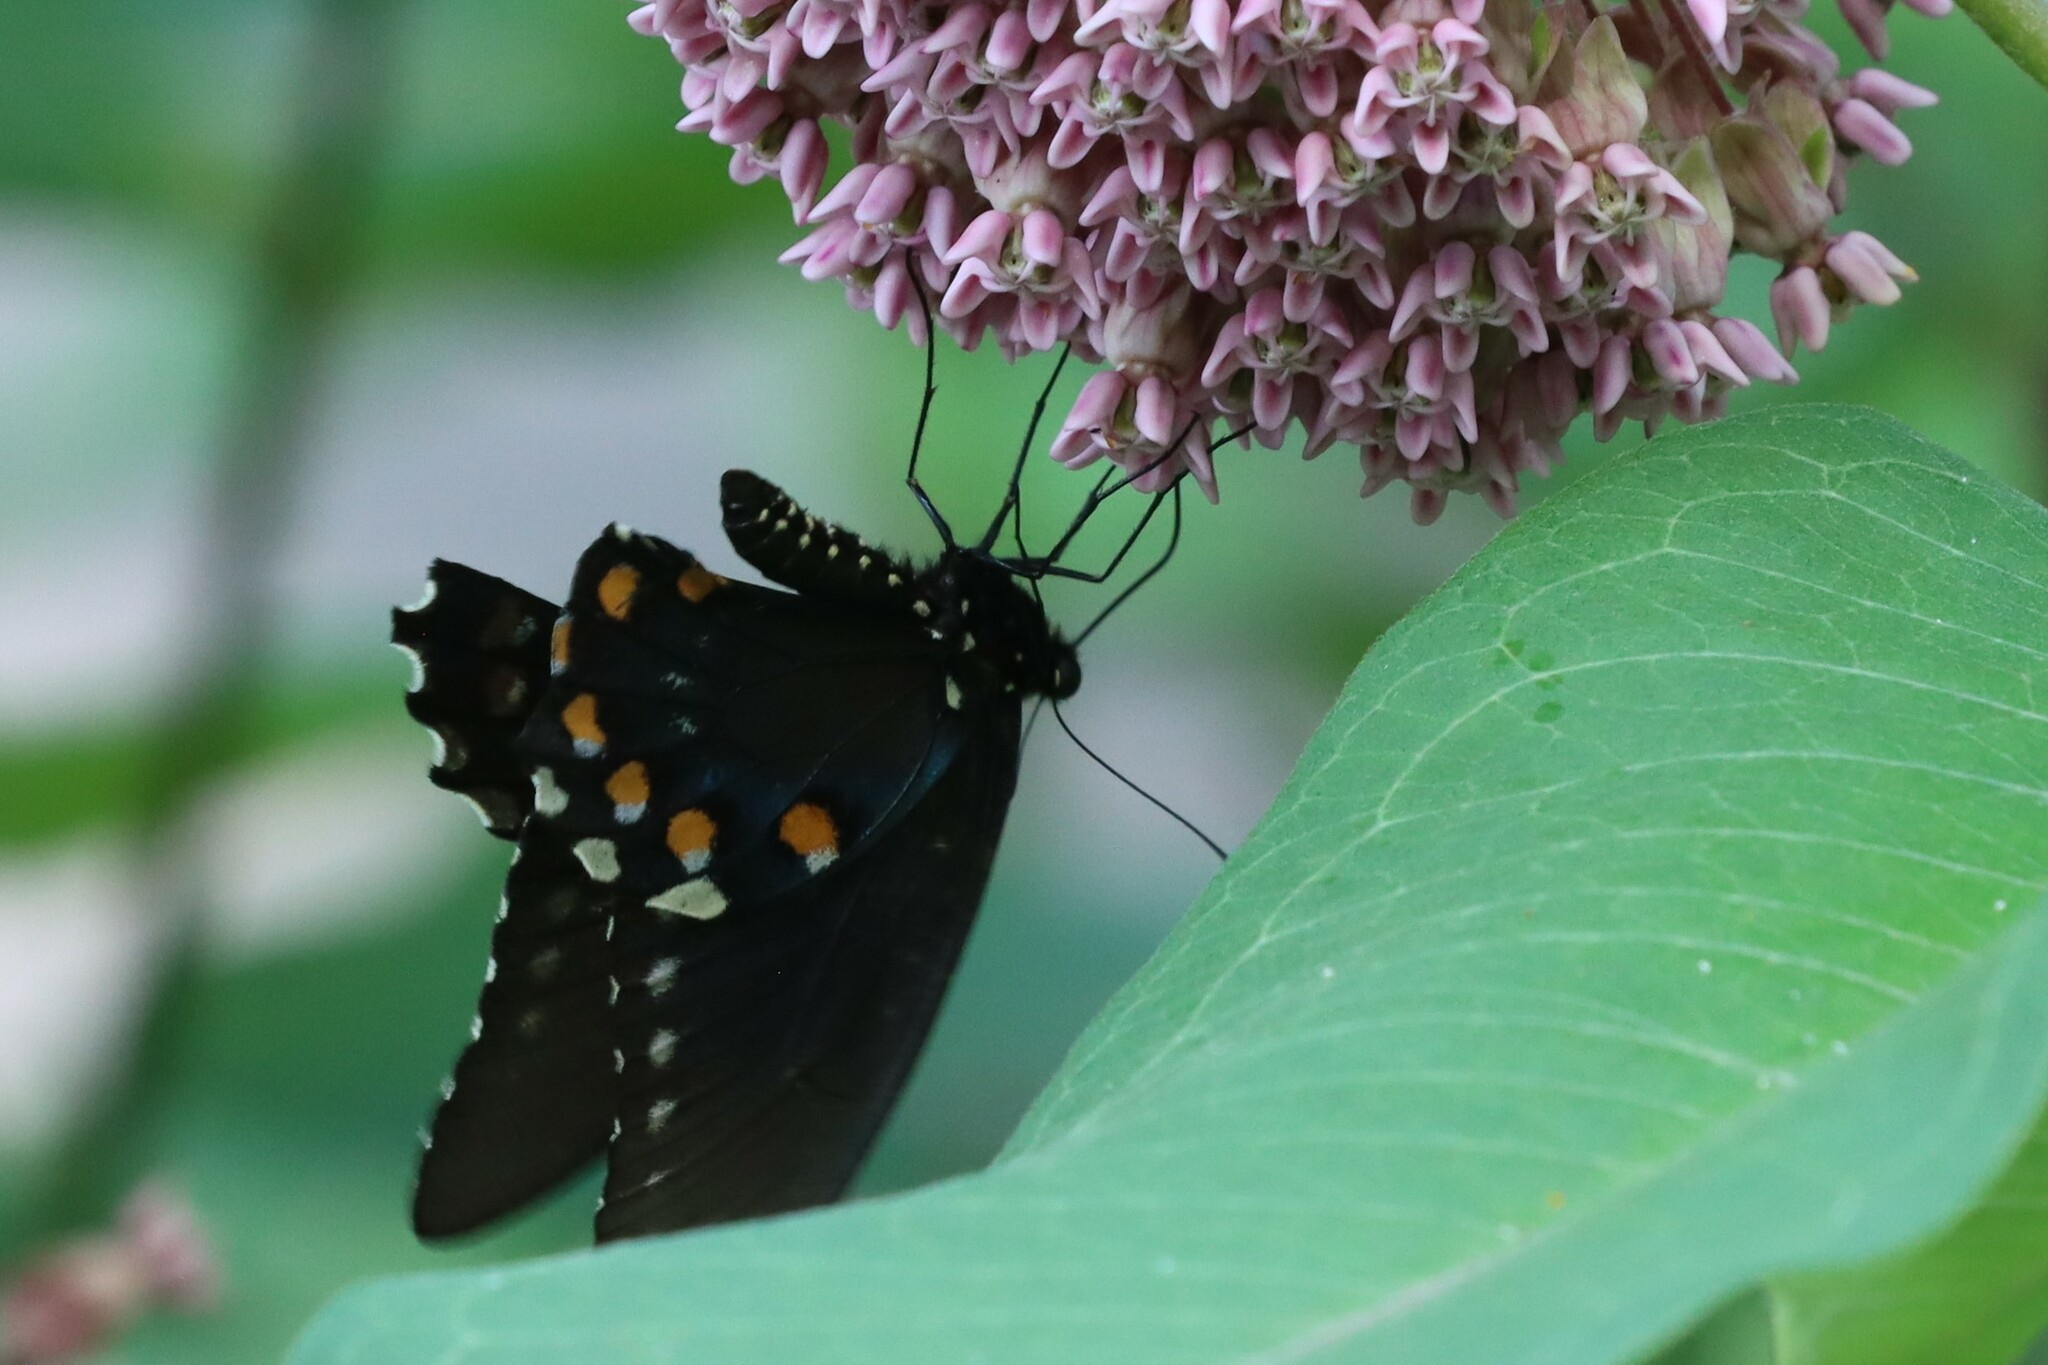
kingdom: Animalia
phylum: Arthropoda
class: Insecta
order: Lepidoptera
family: Papilionidae
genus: Battus
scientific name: Battus philenor
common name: Pipevine swallowtail
